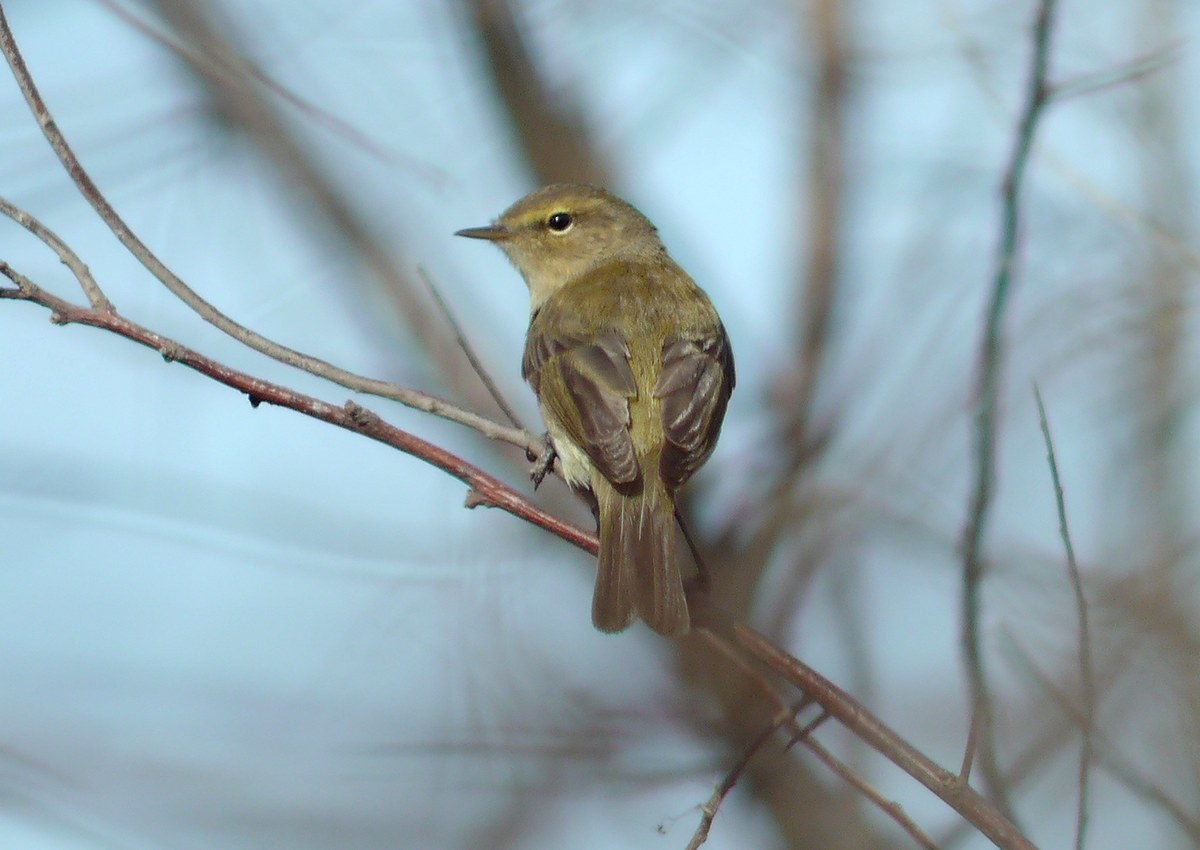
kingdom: Animalia
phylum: Chordata
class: Aves
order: Passeriformes
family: Phylloscopidae
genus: Phylloscopus
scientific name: Phylloscopus collybita
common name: Common chiffchaff
